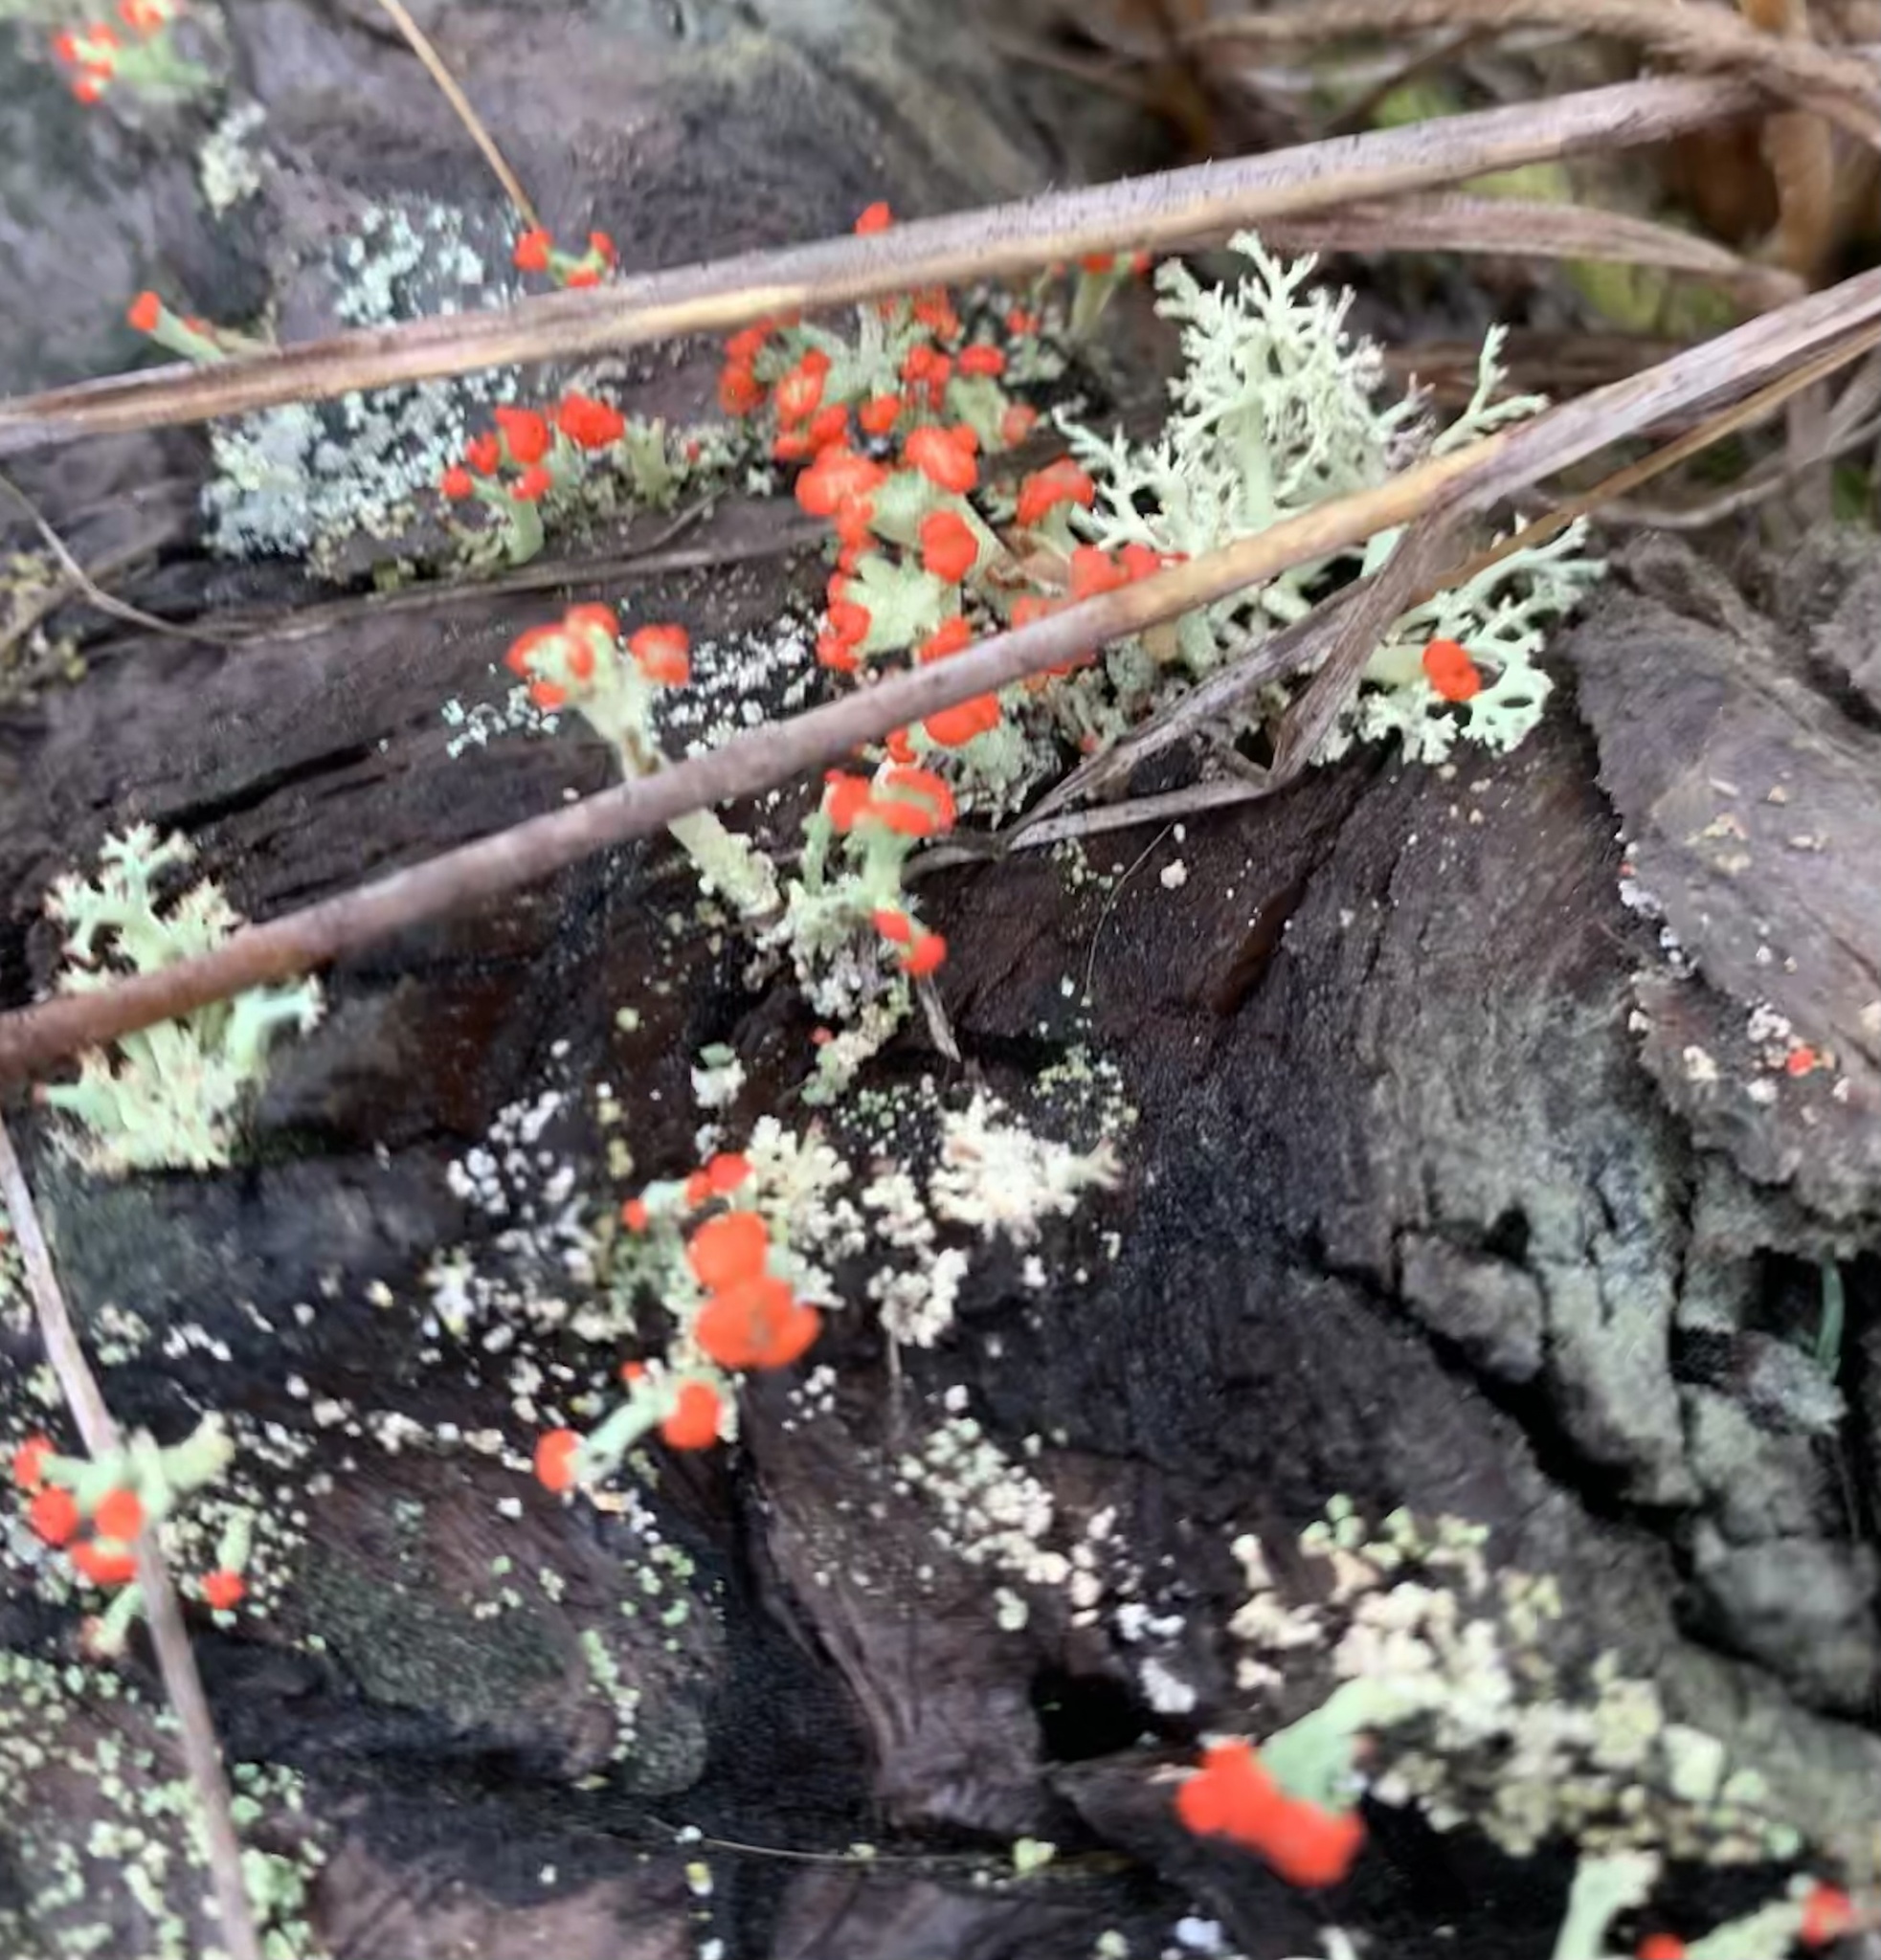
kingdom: Fungi
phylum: Ascomycota
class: Lecanoromycetes
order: Lecanorales
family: Cladoniaceae
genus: Cladonia
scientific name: Cladonia cristatella
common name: British soldier lichen
